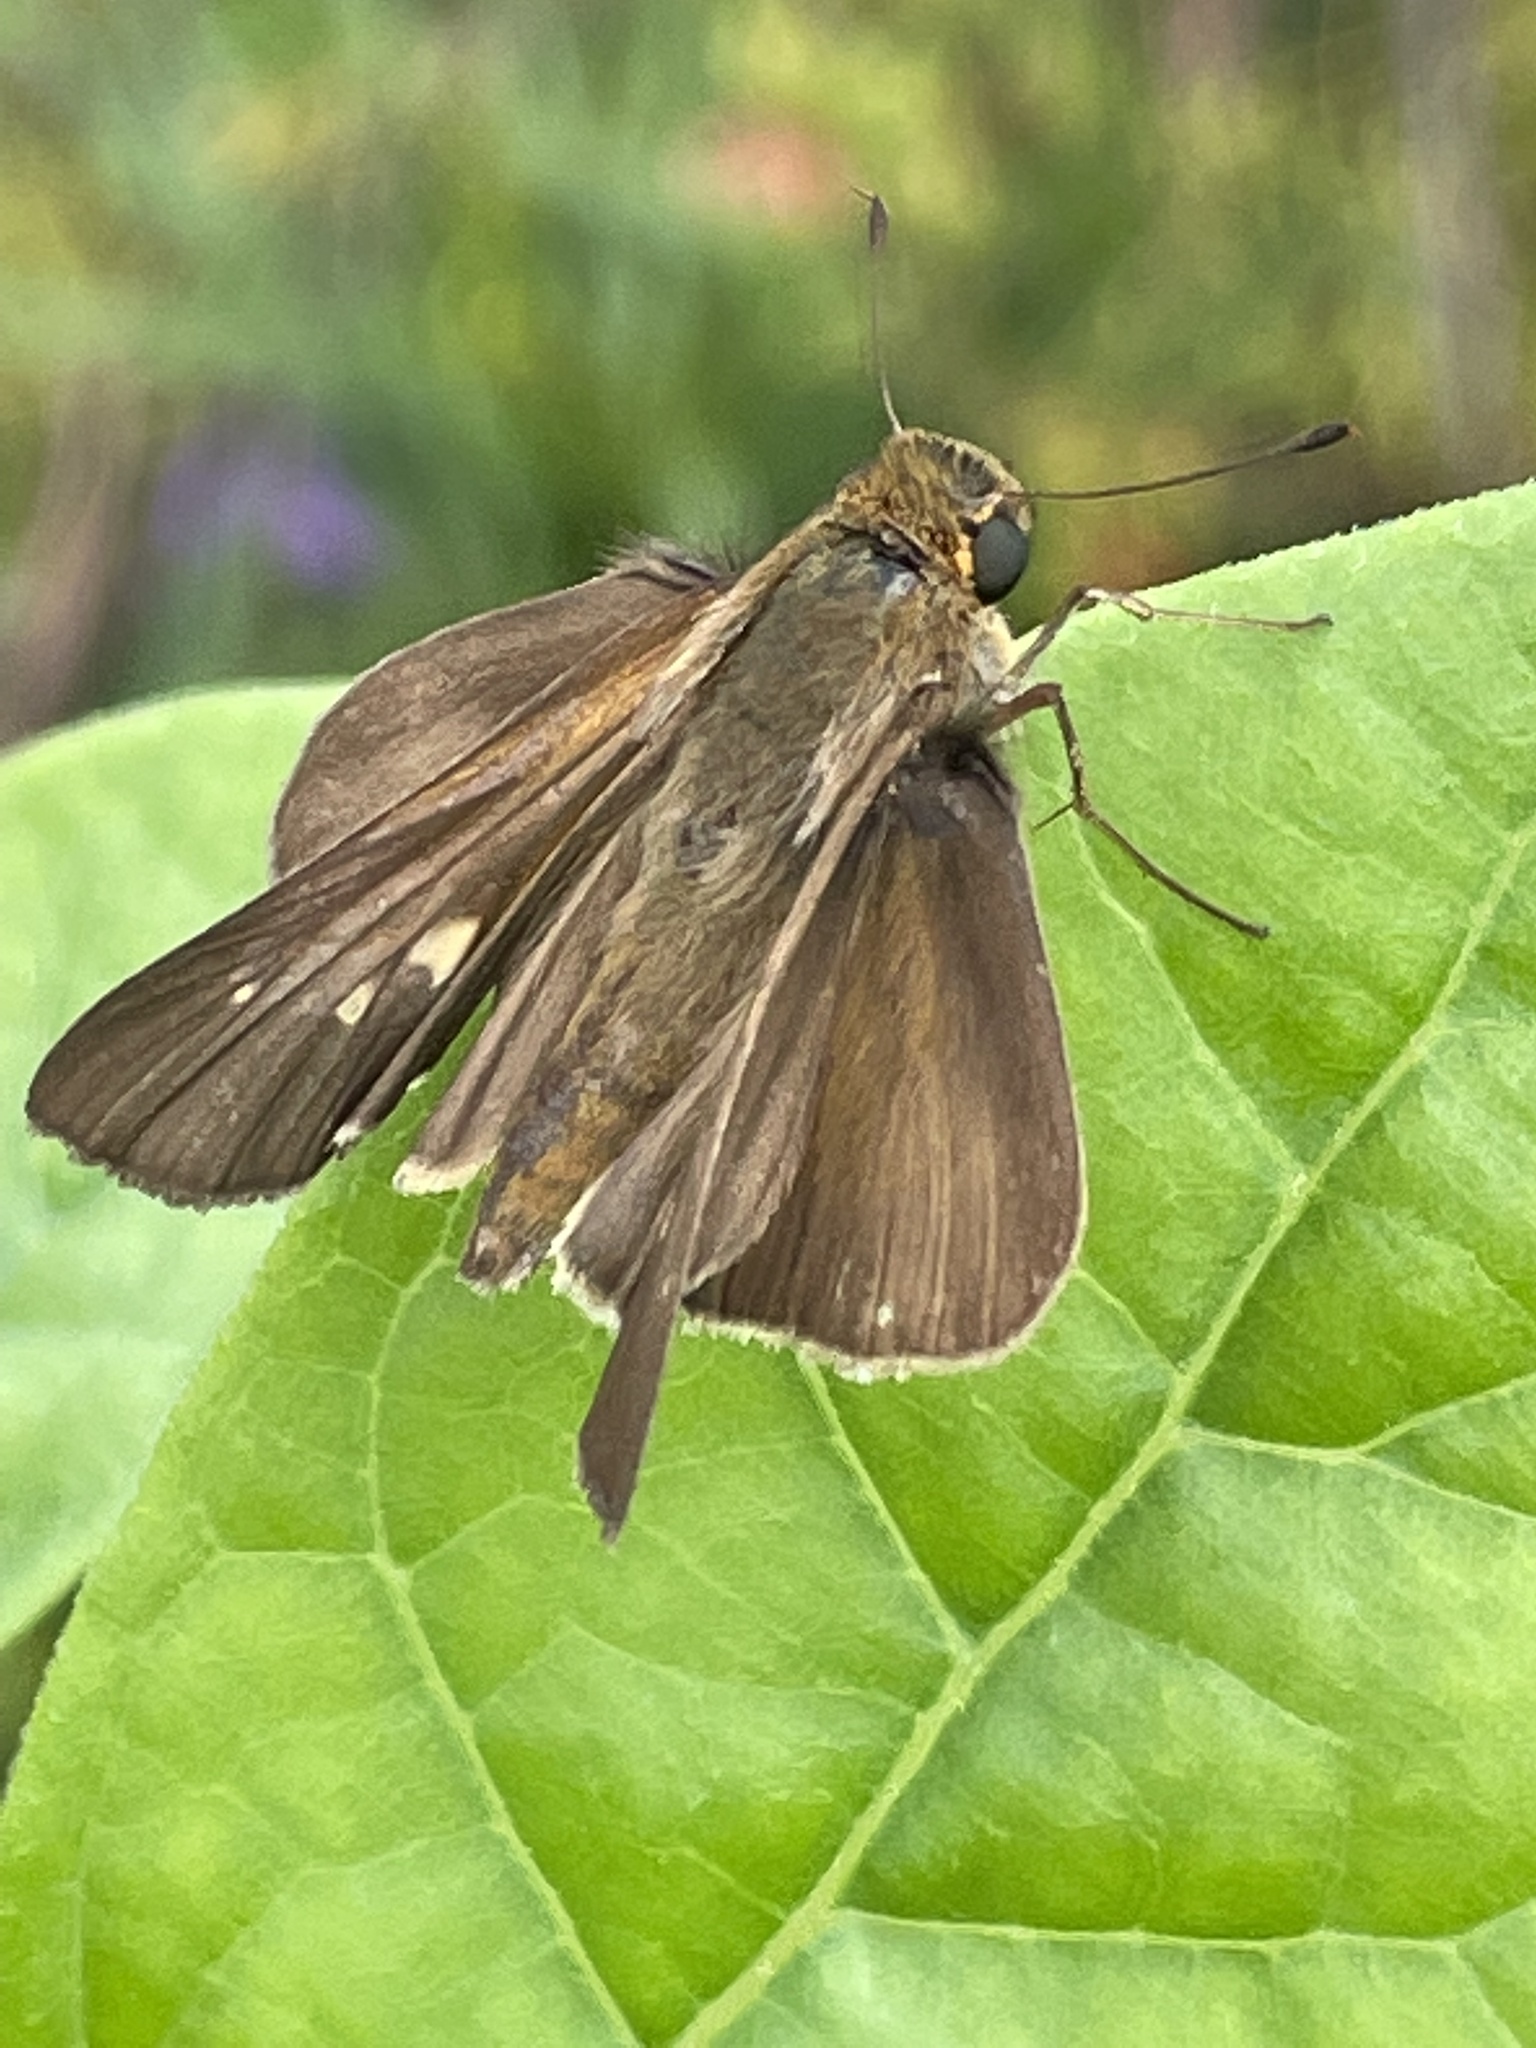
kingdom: Animalia
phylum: Arthropoda
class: Insecta
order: Lepidoptera
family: Hesperiidae
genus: Panoquina
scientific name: Panoquina ocola
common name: Ocola skipper
